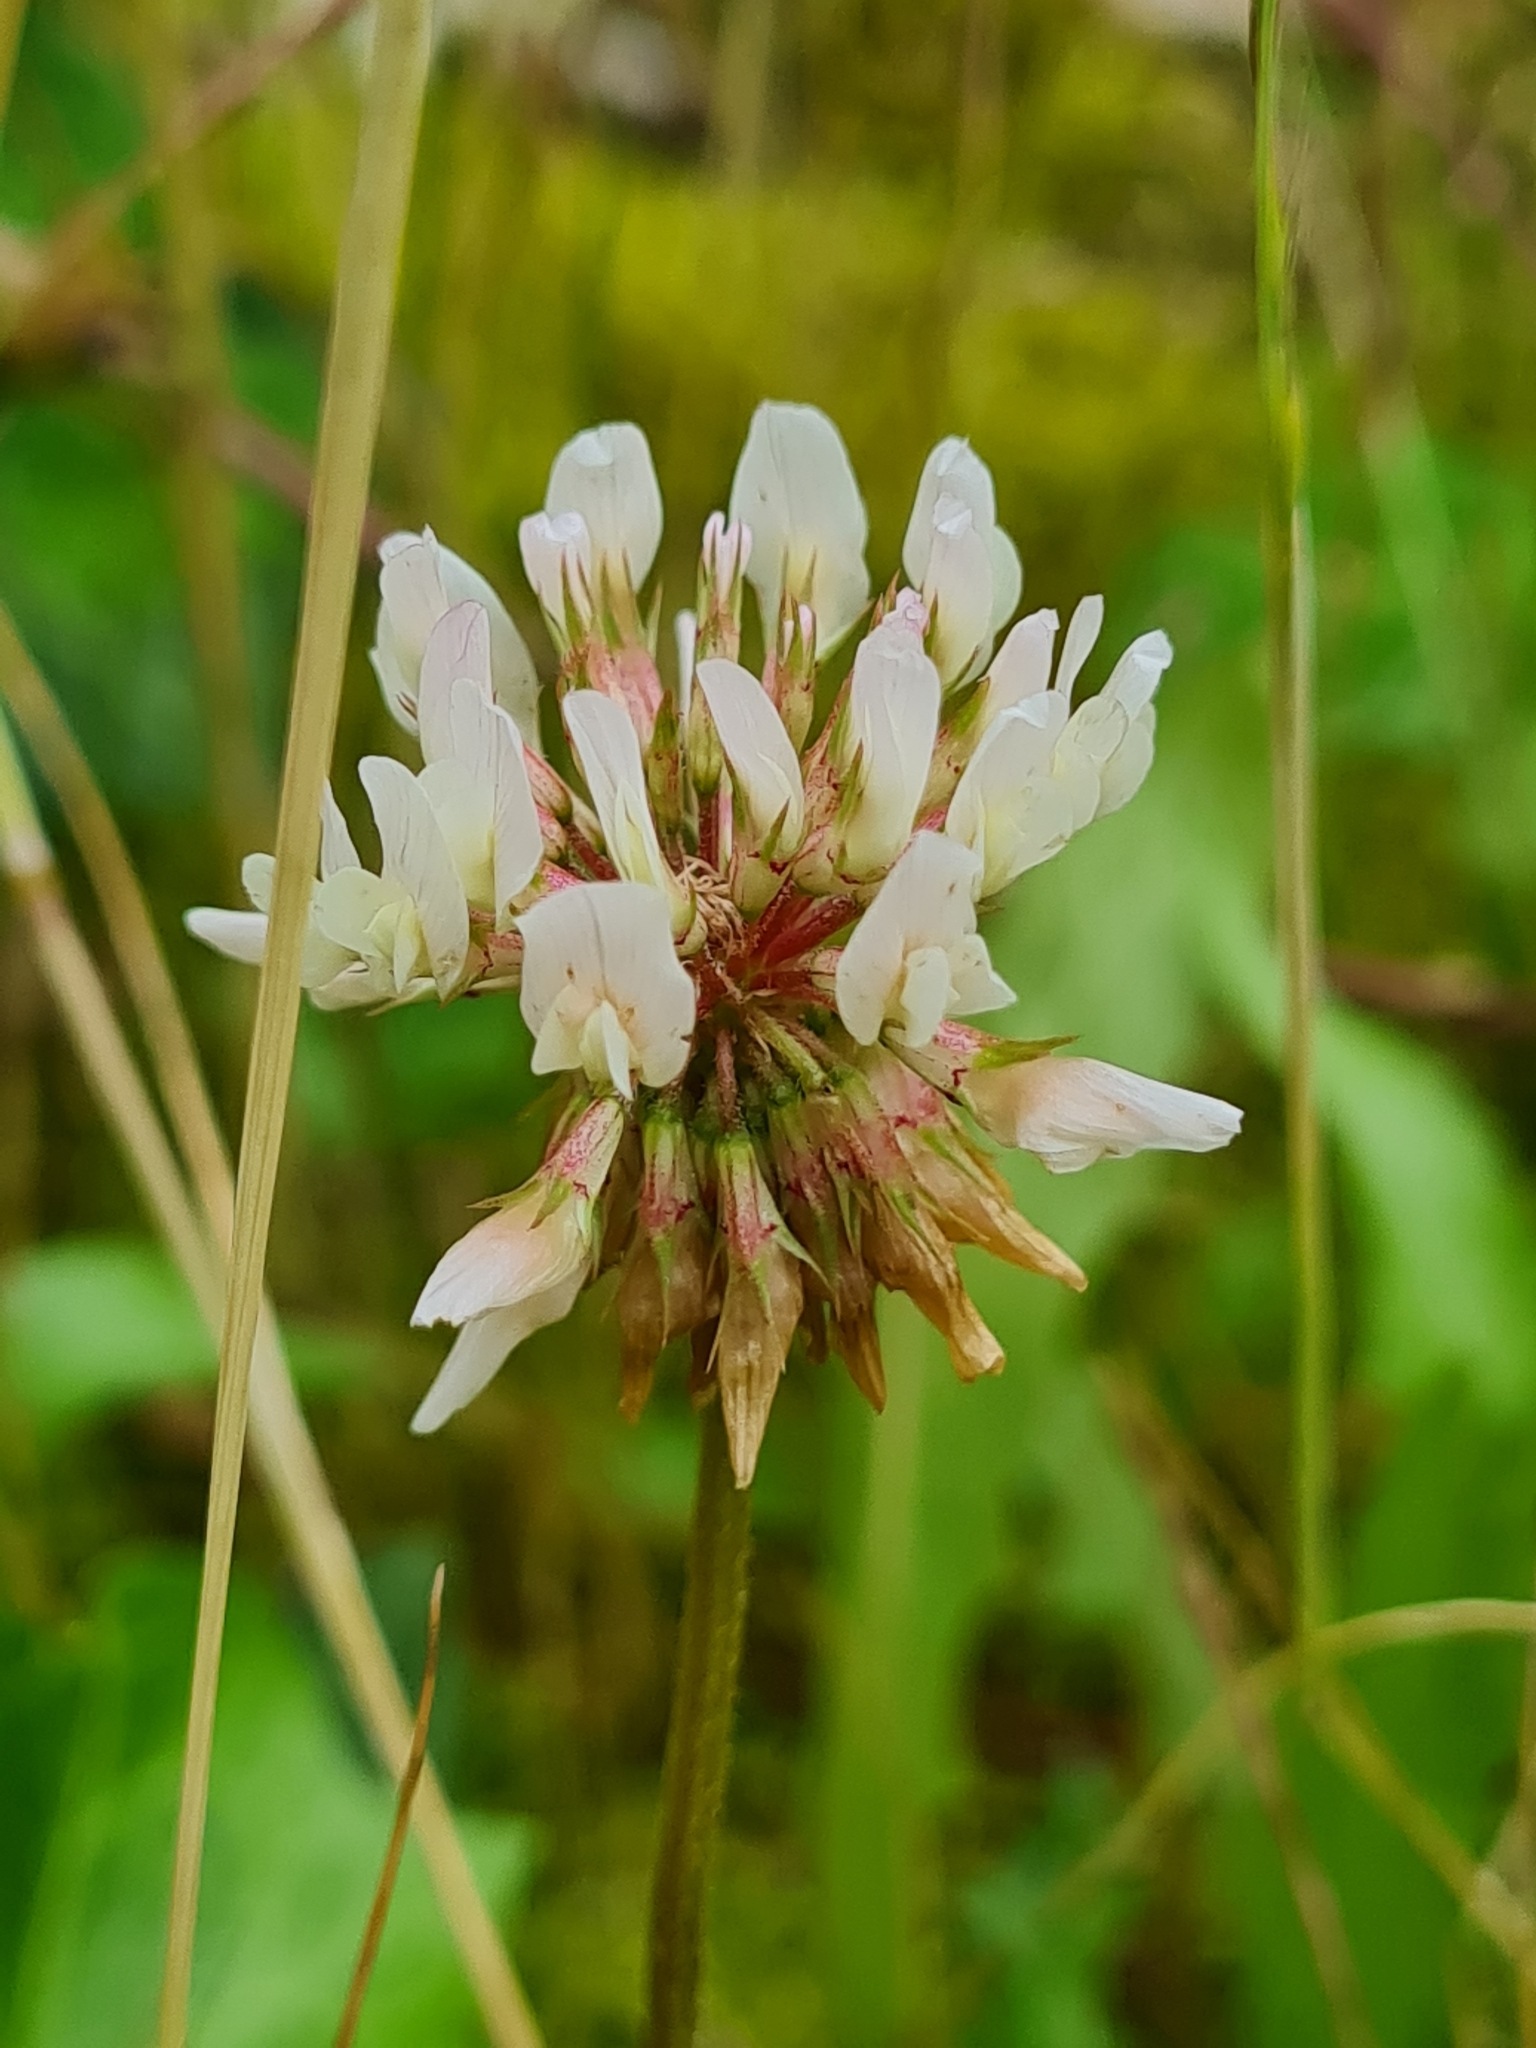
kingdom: Plantae
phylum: Tracheophyta
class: Magnoliopsida
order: Fabales
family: Fabaceae
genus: Trifolium
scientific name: Trifolium repens
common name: White clover
